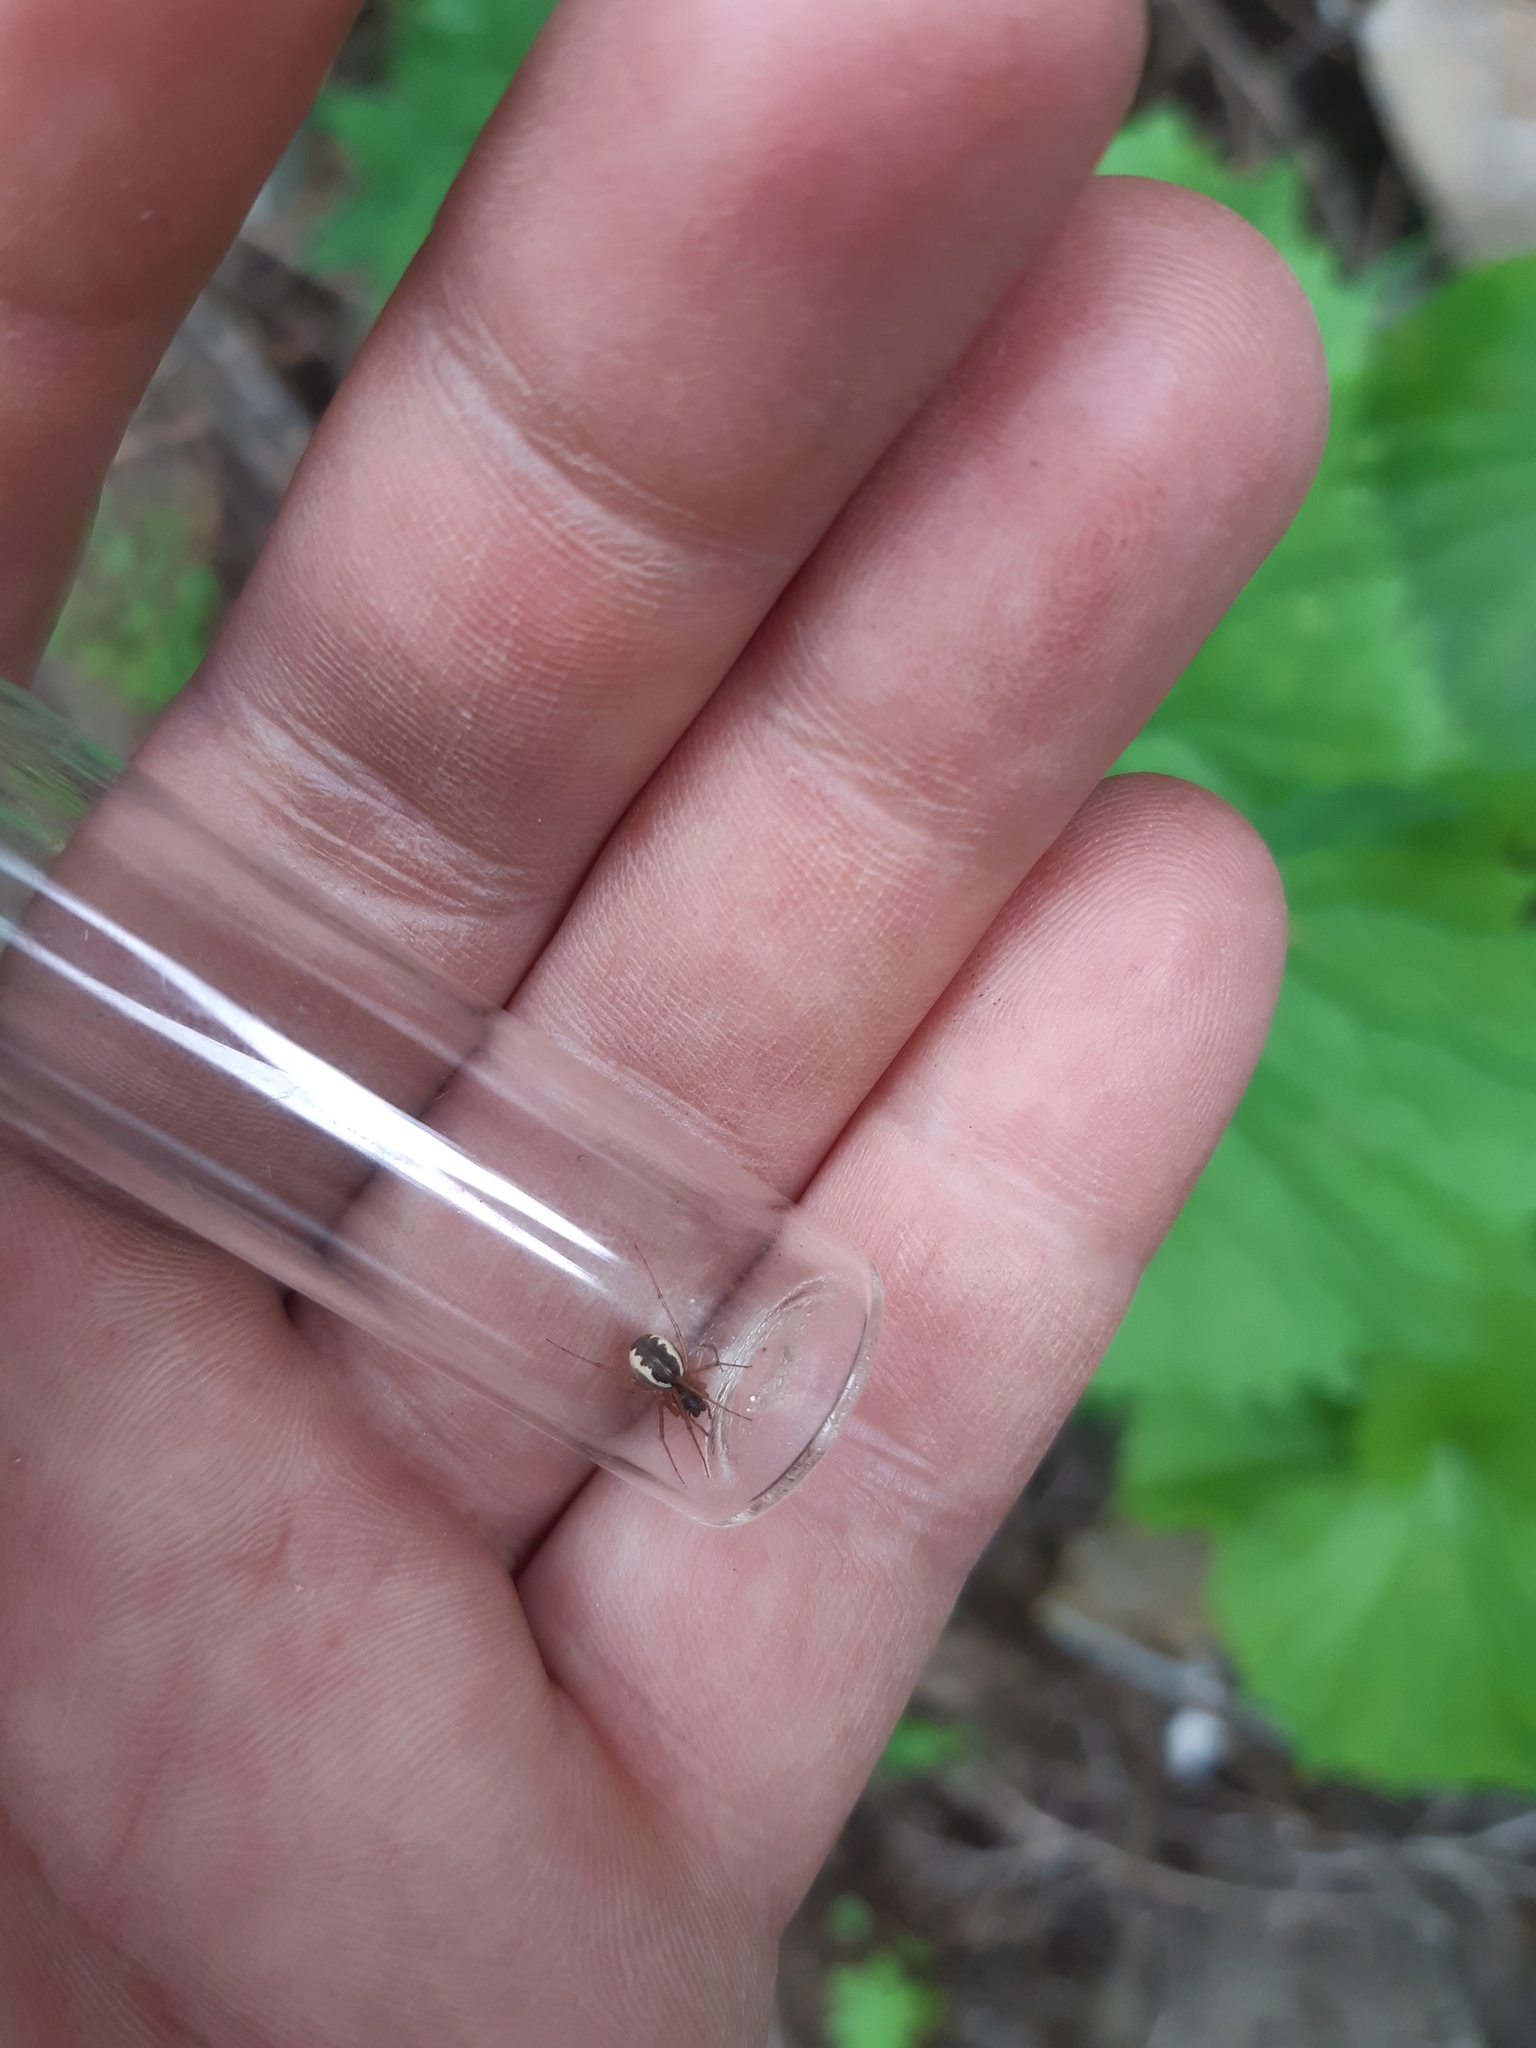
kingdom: Animalia
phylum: Arthropoda
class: Arachnida
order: Araneae
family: Linyphiidae
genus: Frontinellina
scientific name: Frontinellina frutetorum
